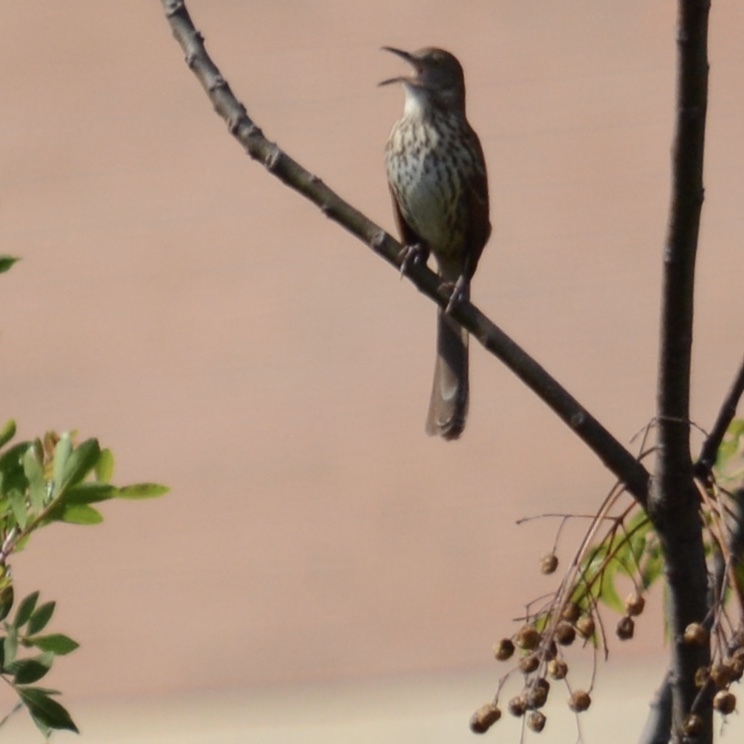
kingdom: Animalia
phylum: Chordata
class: Aves
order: Passeriformes
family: Mimidae
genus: Toxostoma
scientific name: Toxostoma rufum
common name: Brown thrasher
